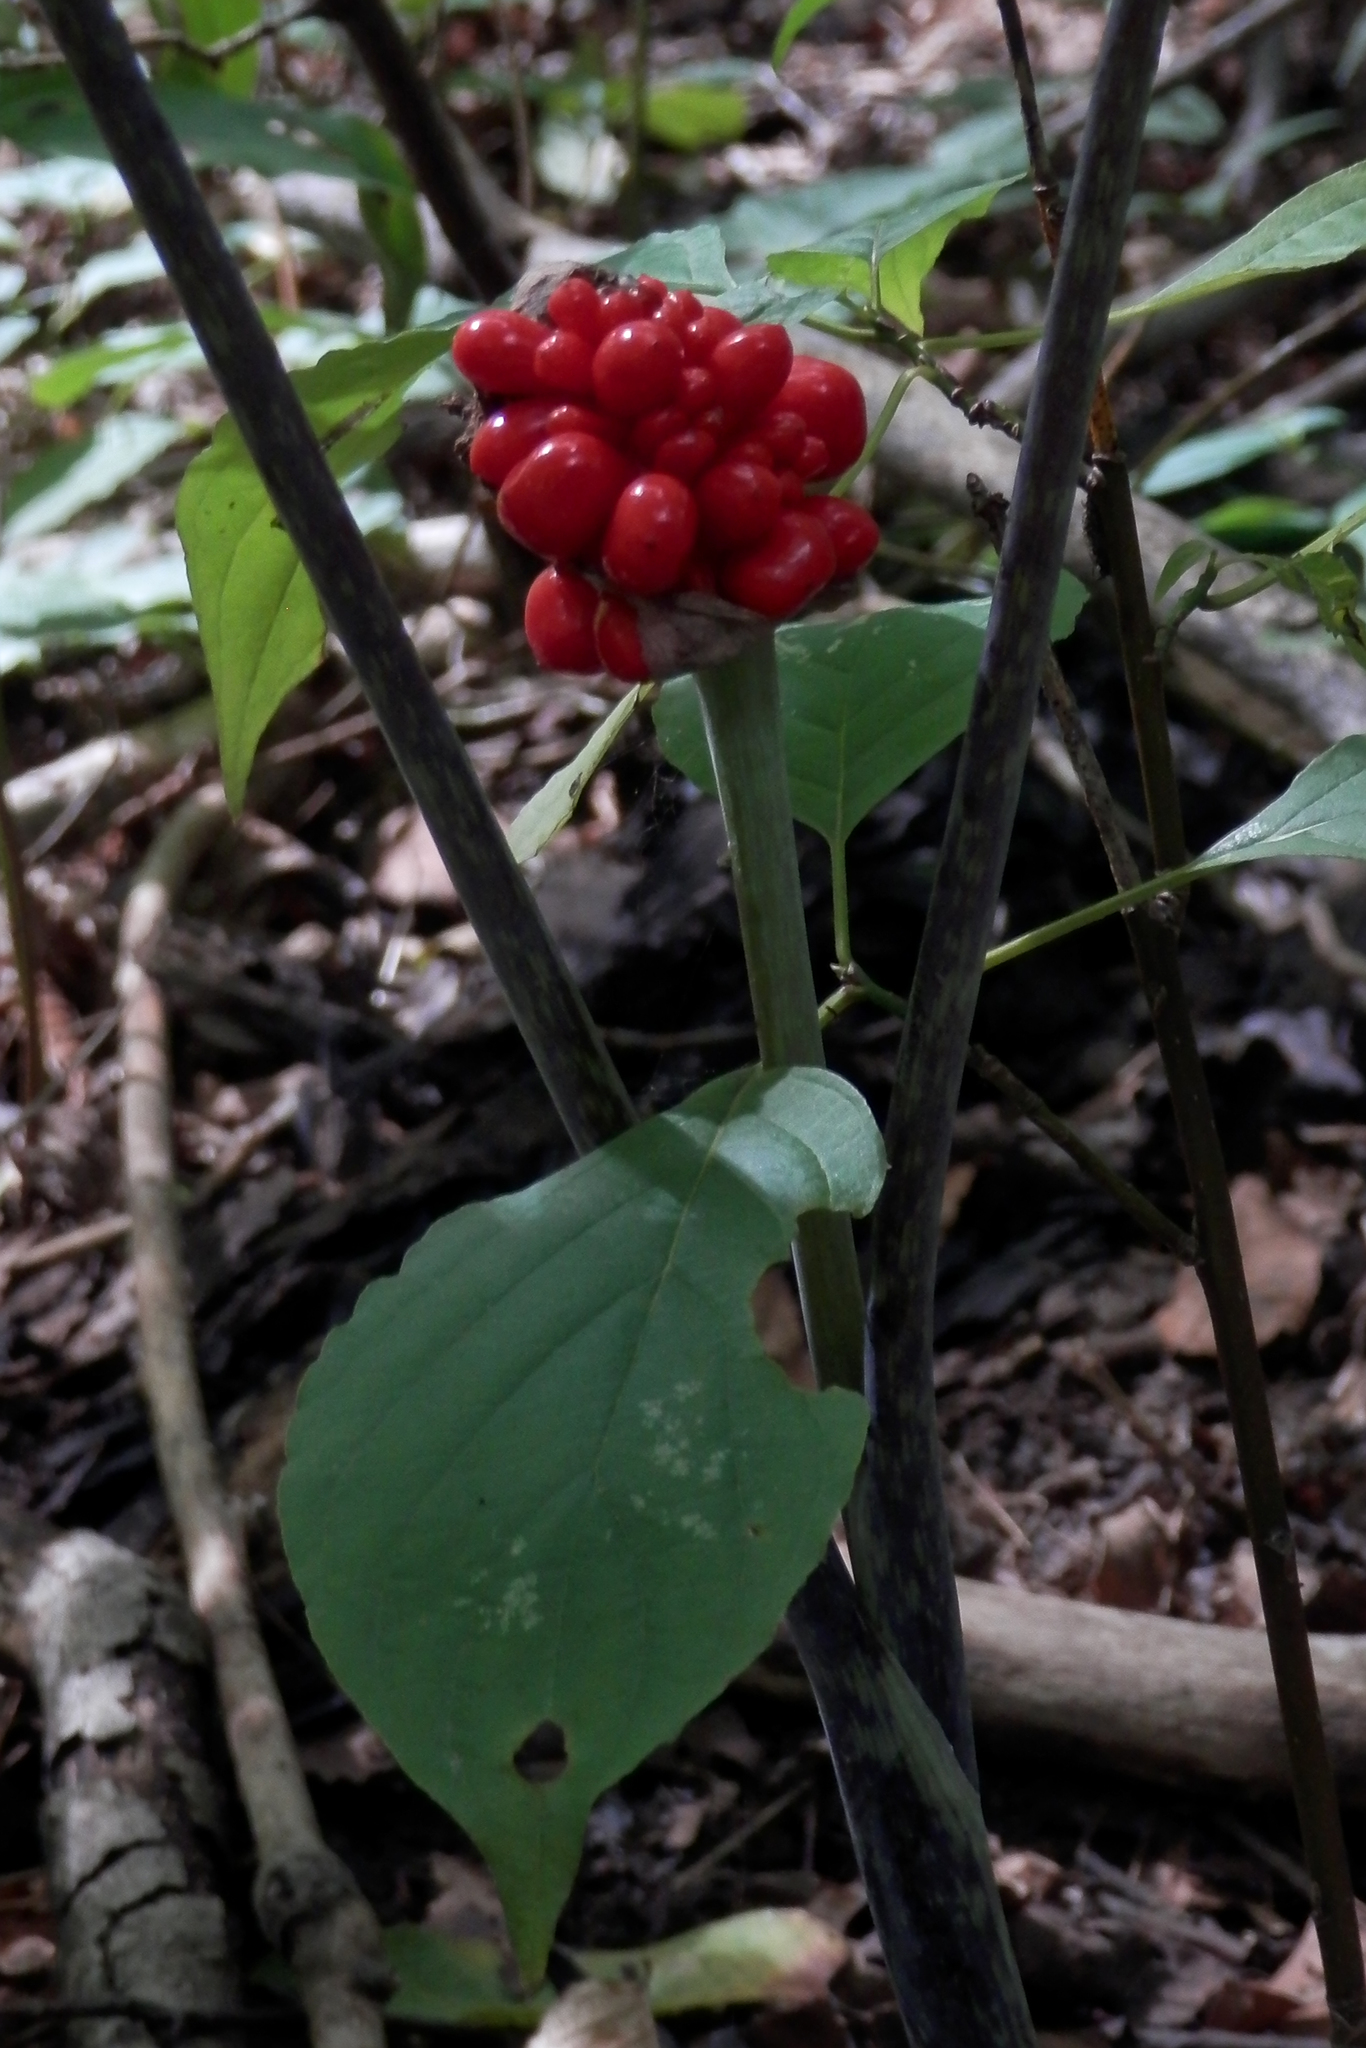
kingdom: Plantae
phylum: Tracheophyta
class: Liliopsida
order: Alismatales
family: Araceae
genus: Arisaema
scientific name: Arisaema triphyllum
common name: Jack-in-the-pulpit
